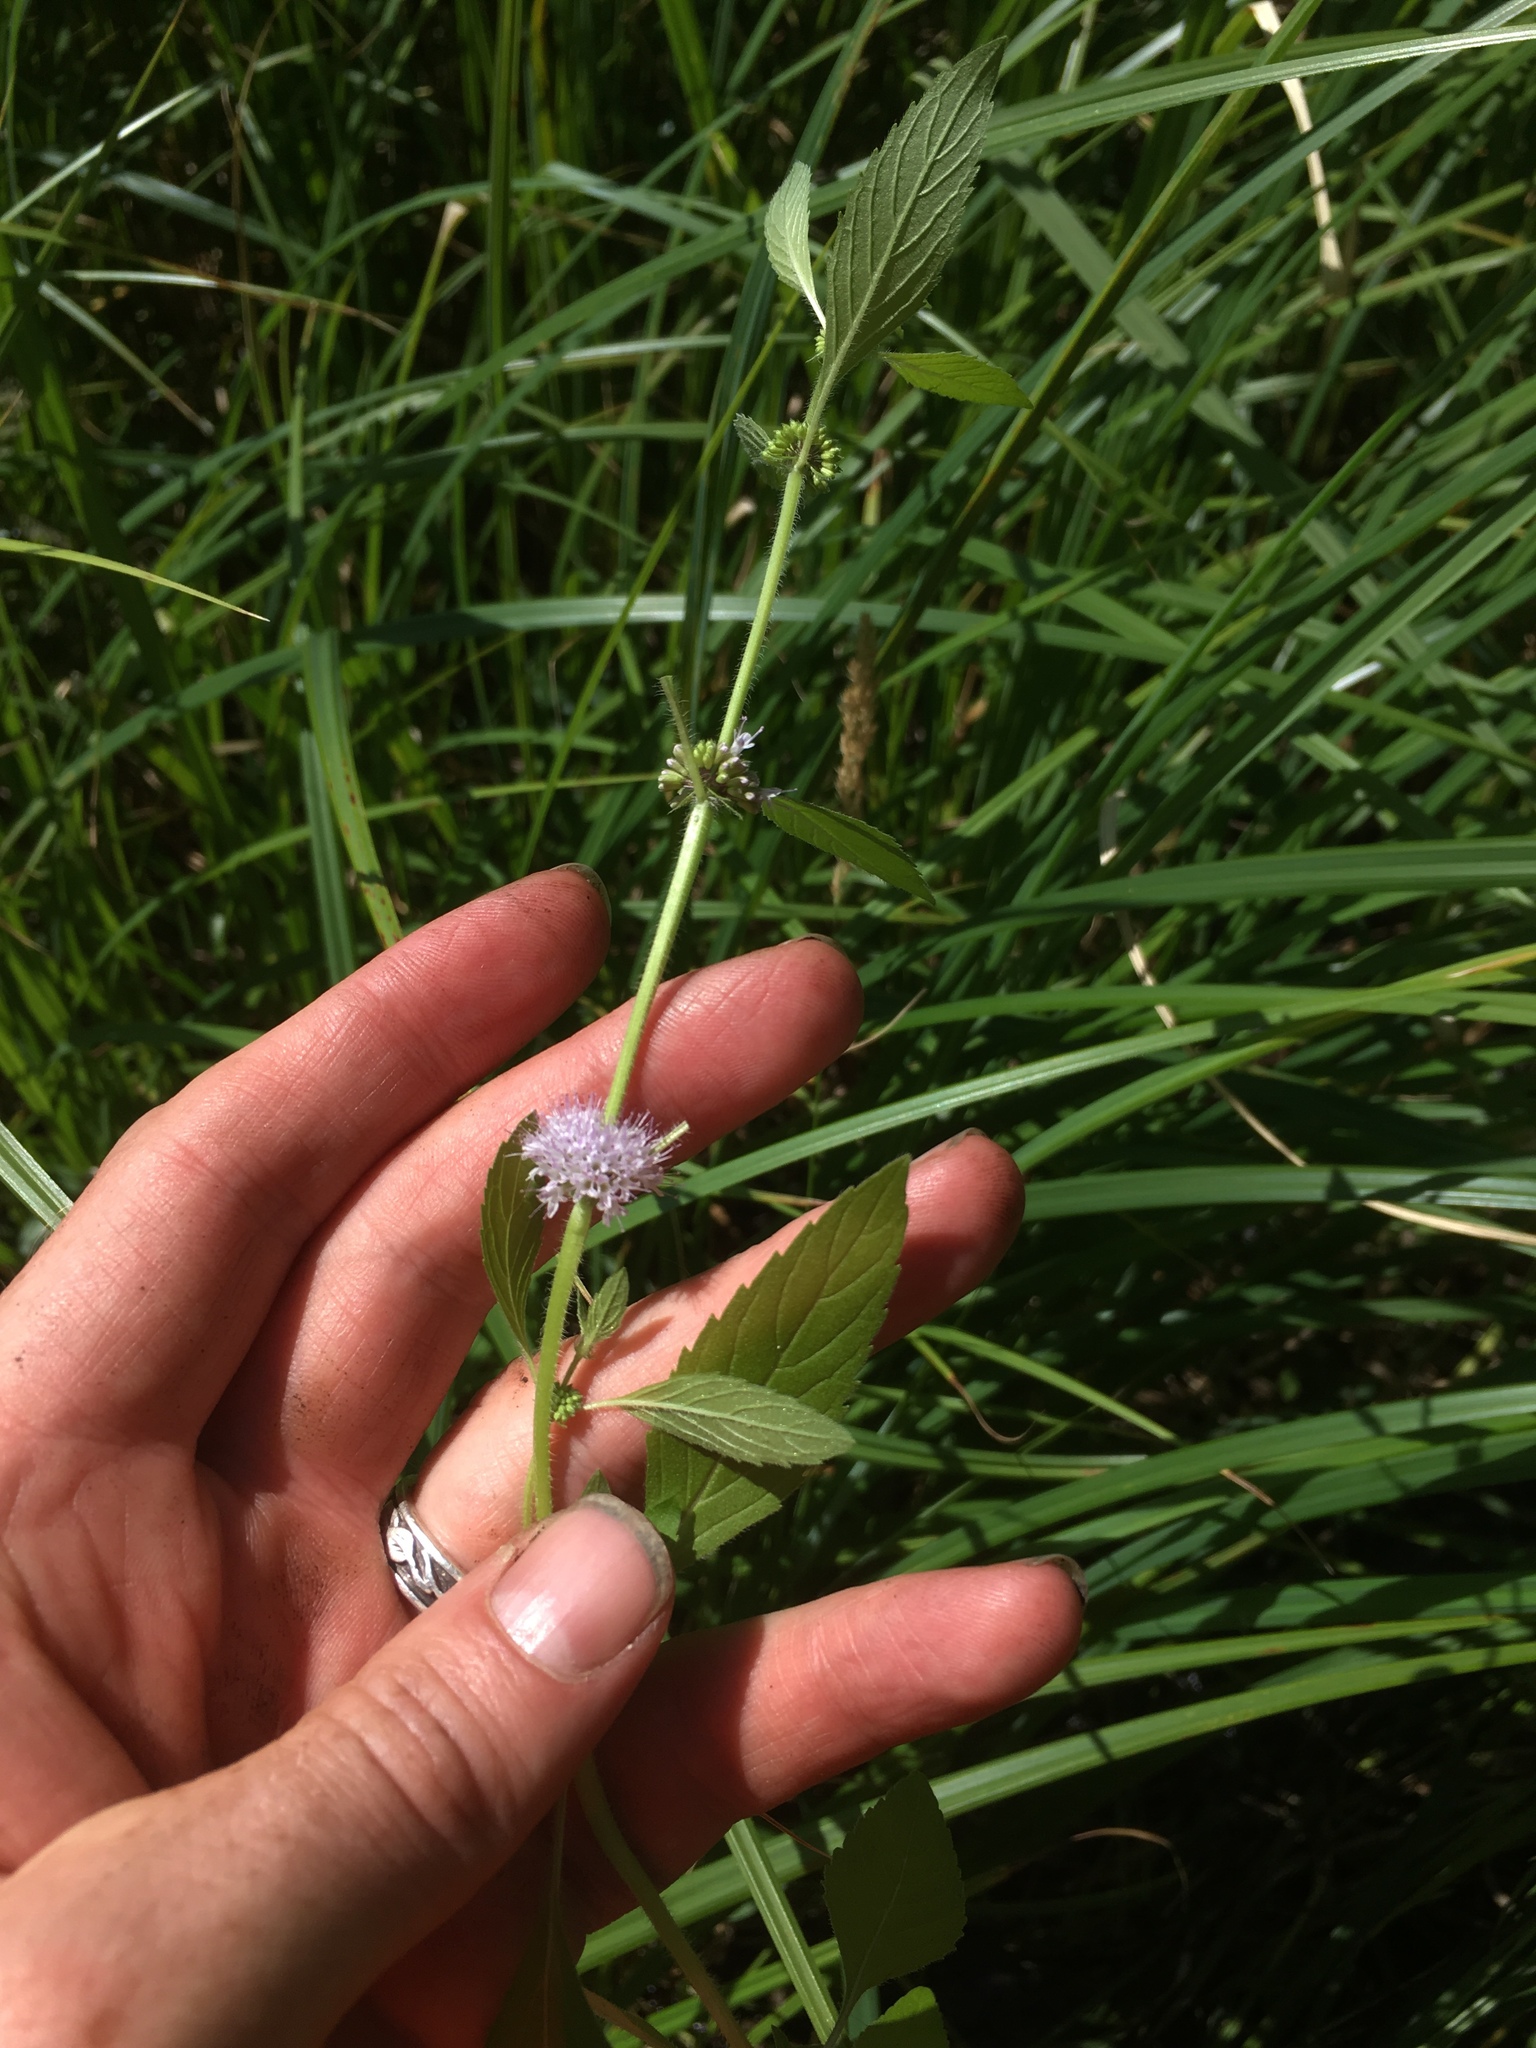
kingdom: Plantae
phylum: Tracheophyta
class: Magnoliopsida
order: Lamiales
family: Lamiaceae
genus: Mentha
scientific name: Mentha canadensis
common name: American corn mint
